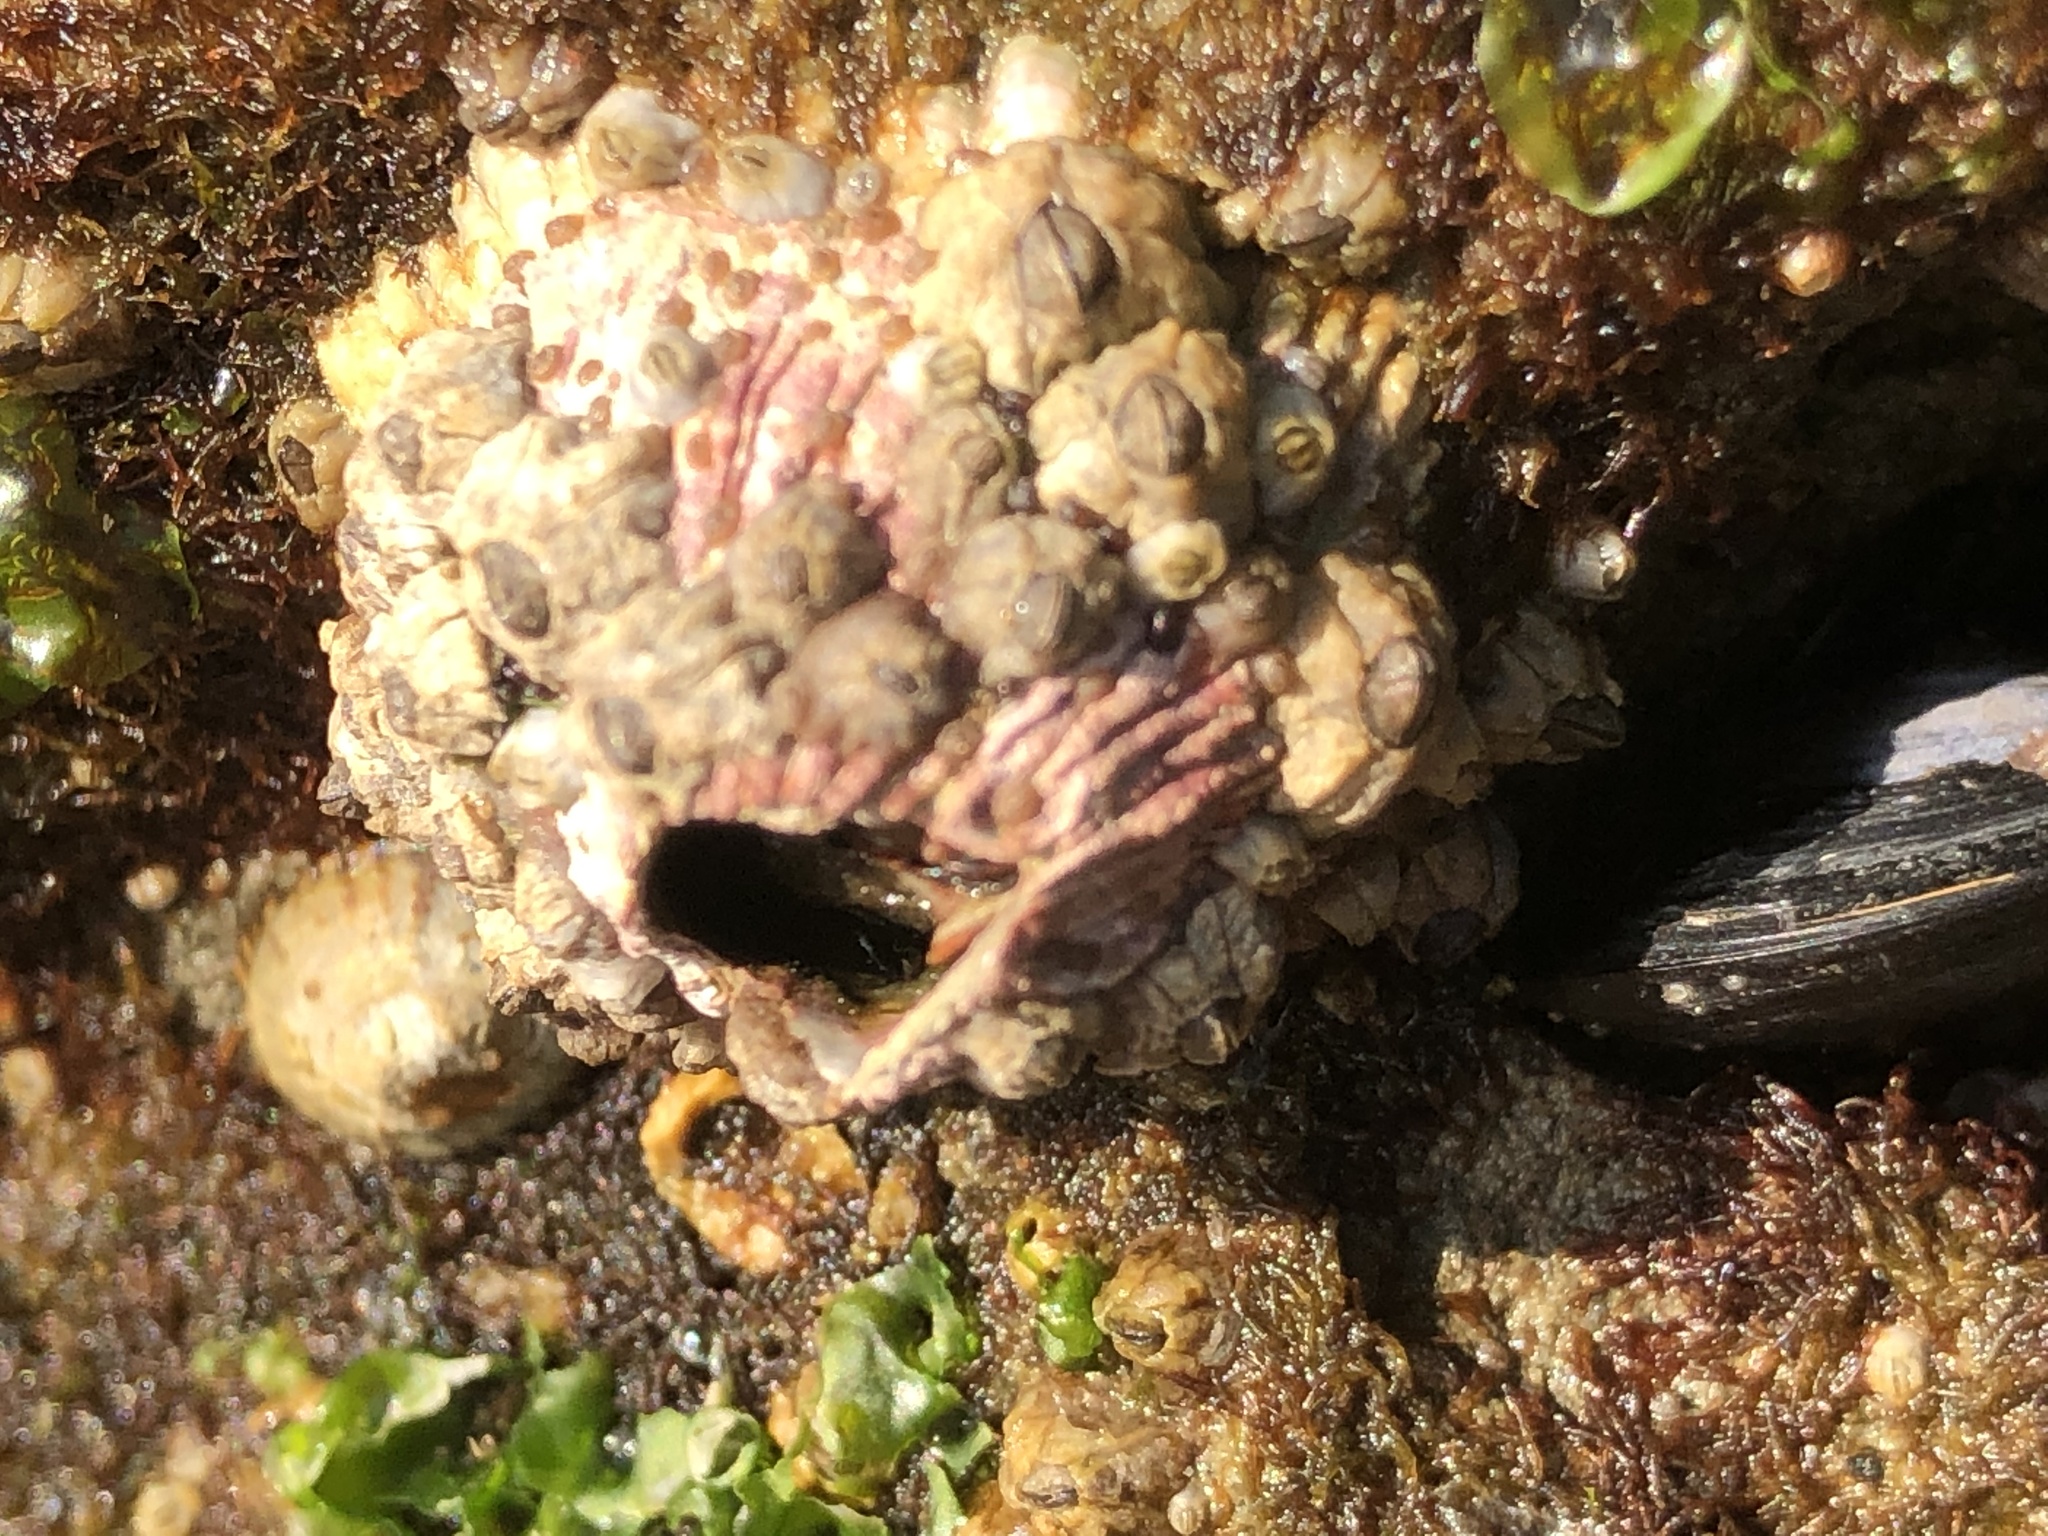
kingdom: Animalia
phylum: Arthropoda
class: Maxillopoda
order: Sessilia
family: Tetraclitidae
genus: Tetraclita
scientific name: Tetraclita rubescens
